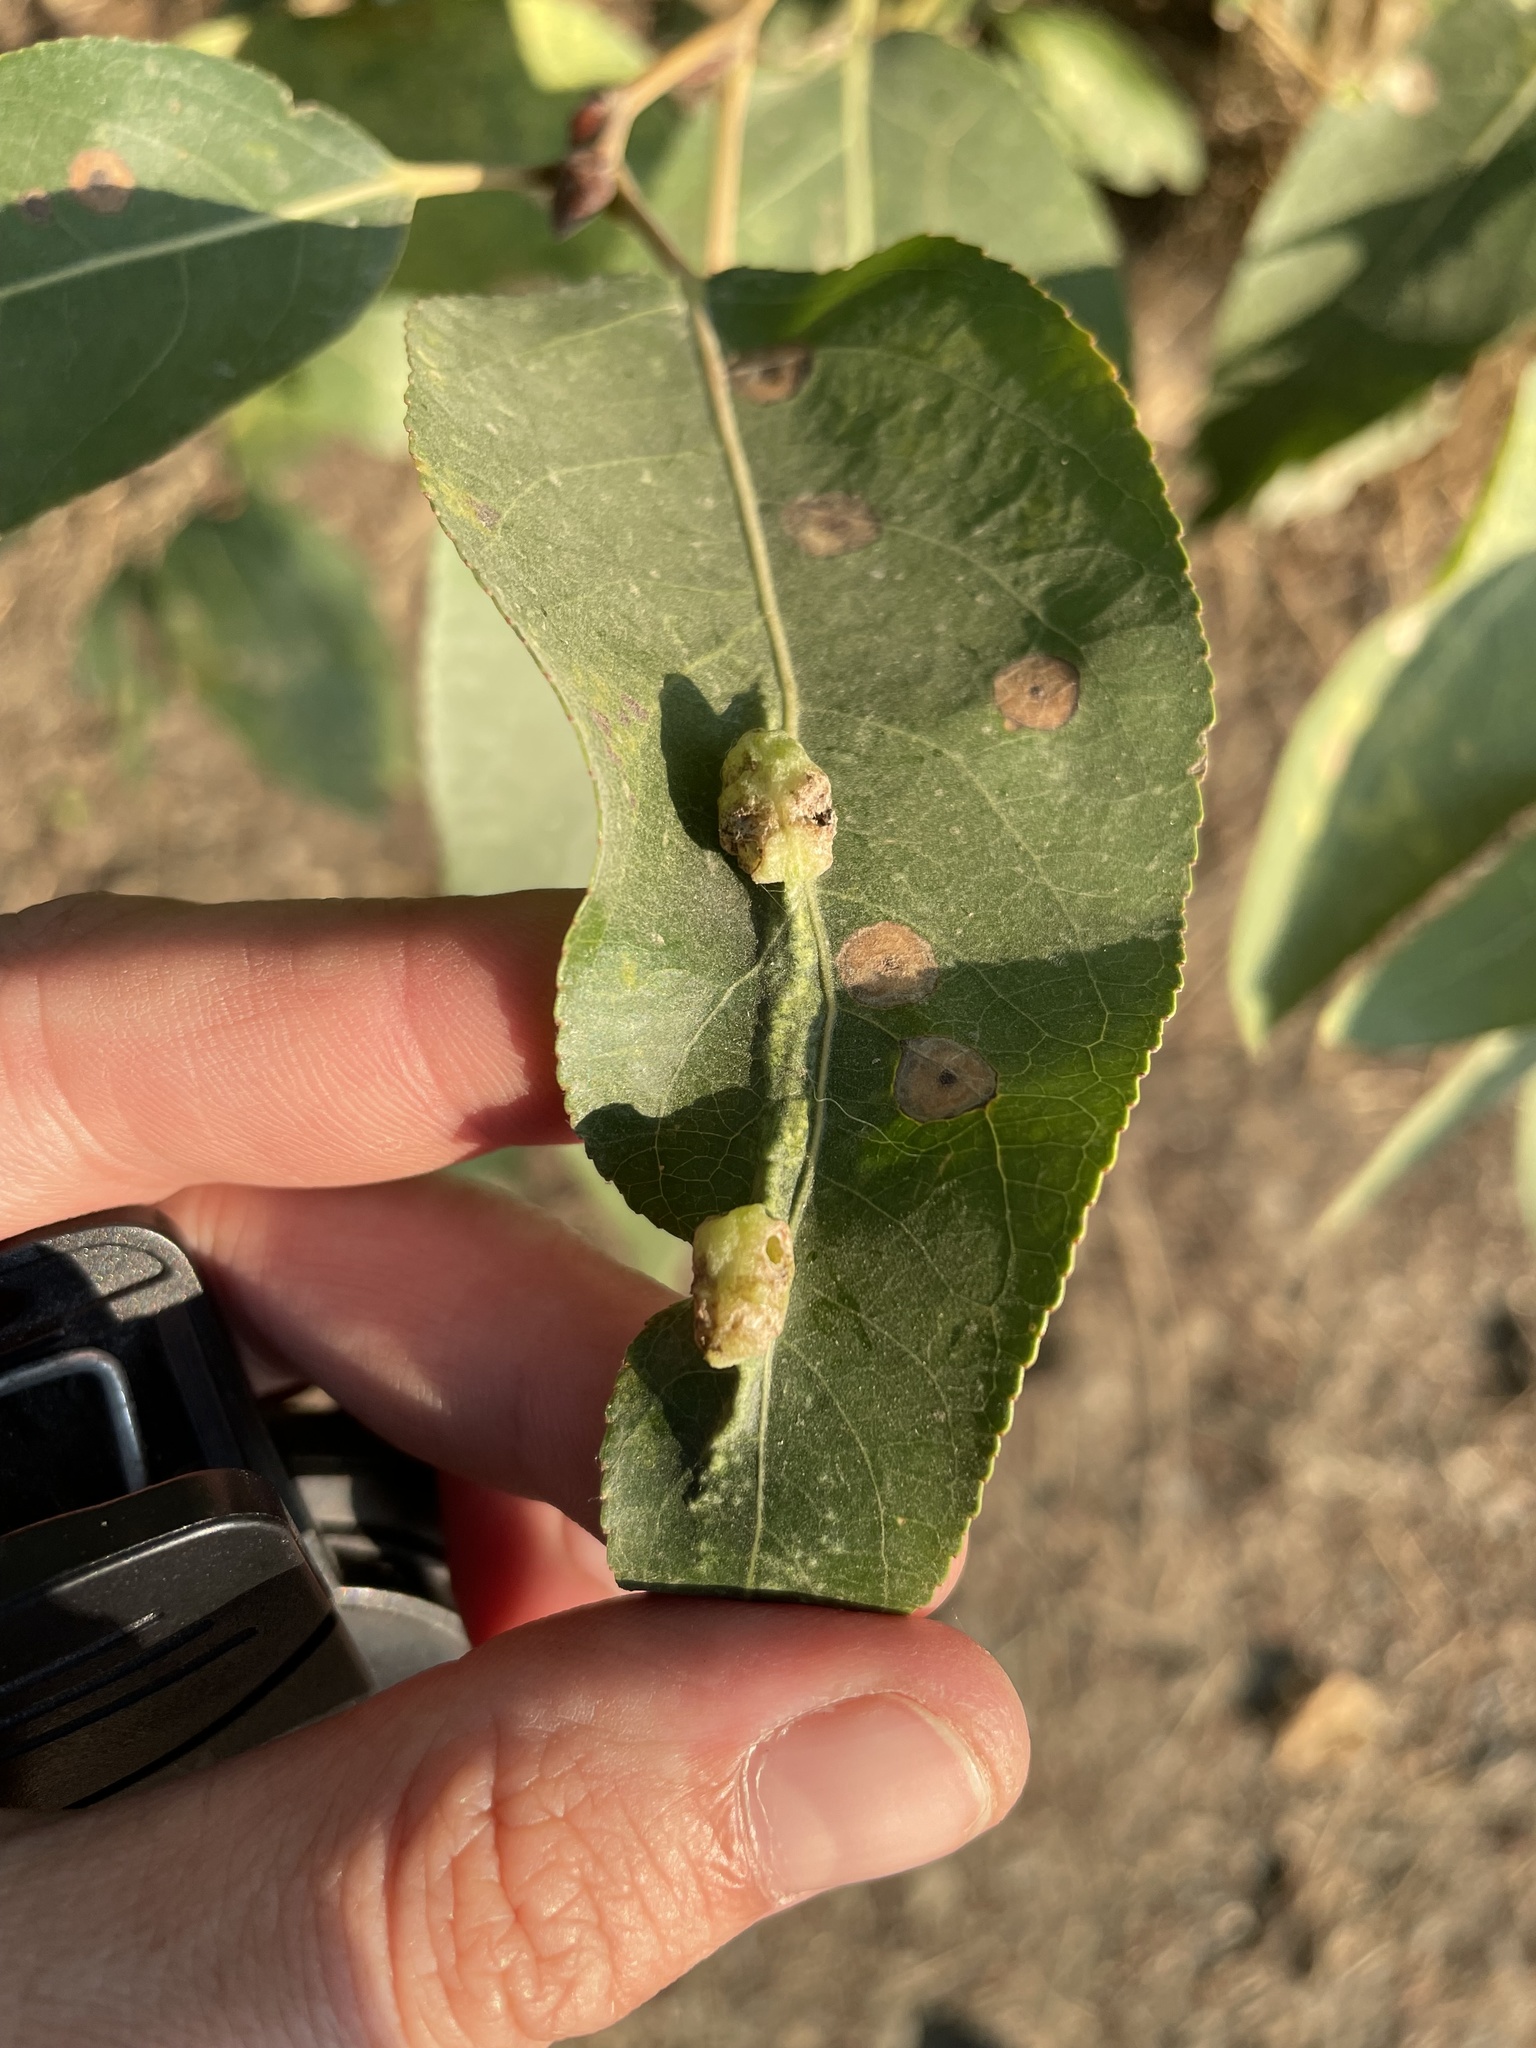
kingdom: Animalia
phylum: Arthropoda
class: Insecta
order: Hemiptera
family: Aphididae
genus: Thecabius
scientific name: Thecabius populimonilis
